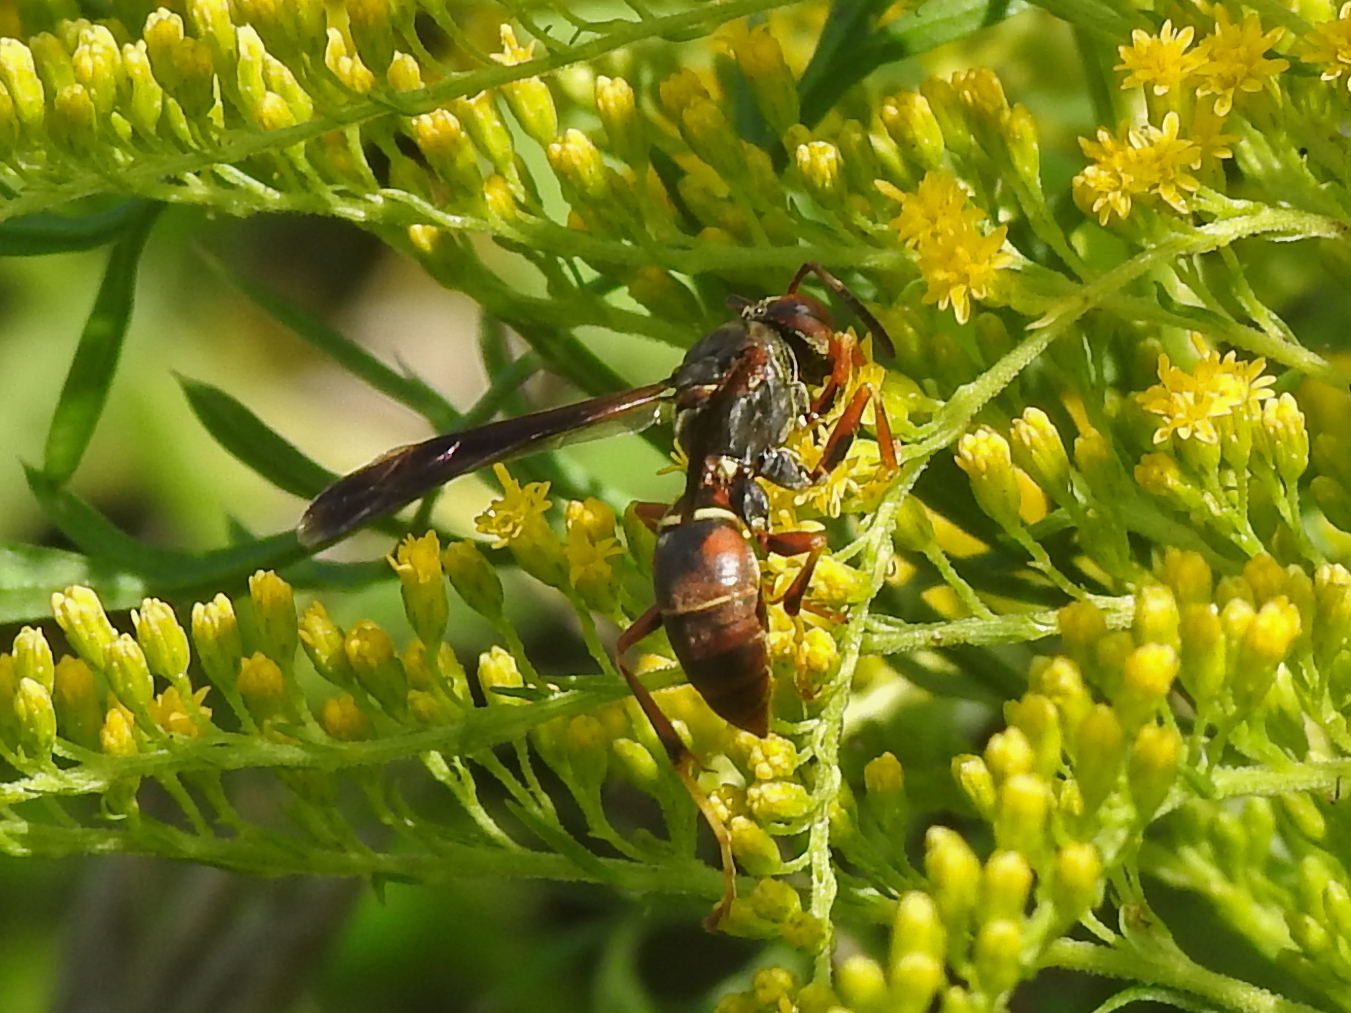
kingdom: Animalia
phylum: Arthropoda
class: Insecta
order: Hymenoptera
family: Eumenidae
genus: Polistes
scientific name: Polistes fuscatus
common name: Dark paper wasp
